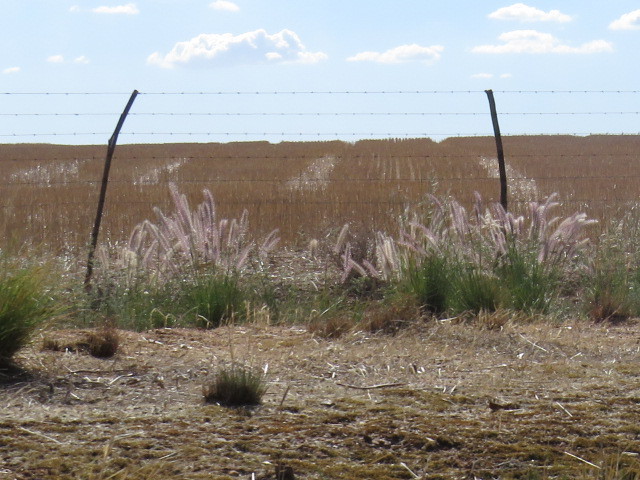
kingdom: Plantae
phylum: Tracheophyta
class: Liliopsida
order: Poales
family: Poaceae
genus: Cenchrus
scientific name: Cenchrus setaceus
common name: Crimson fountaingrass
